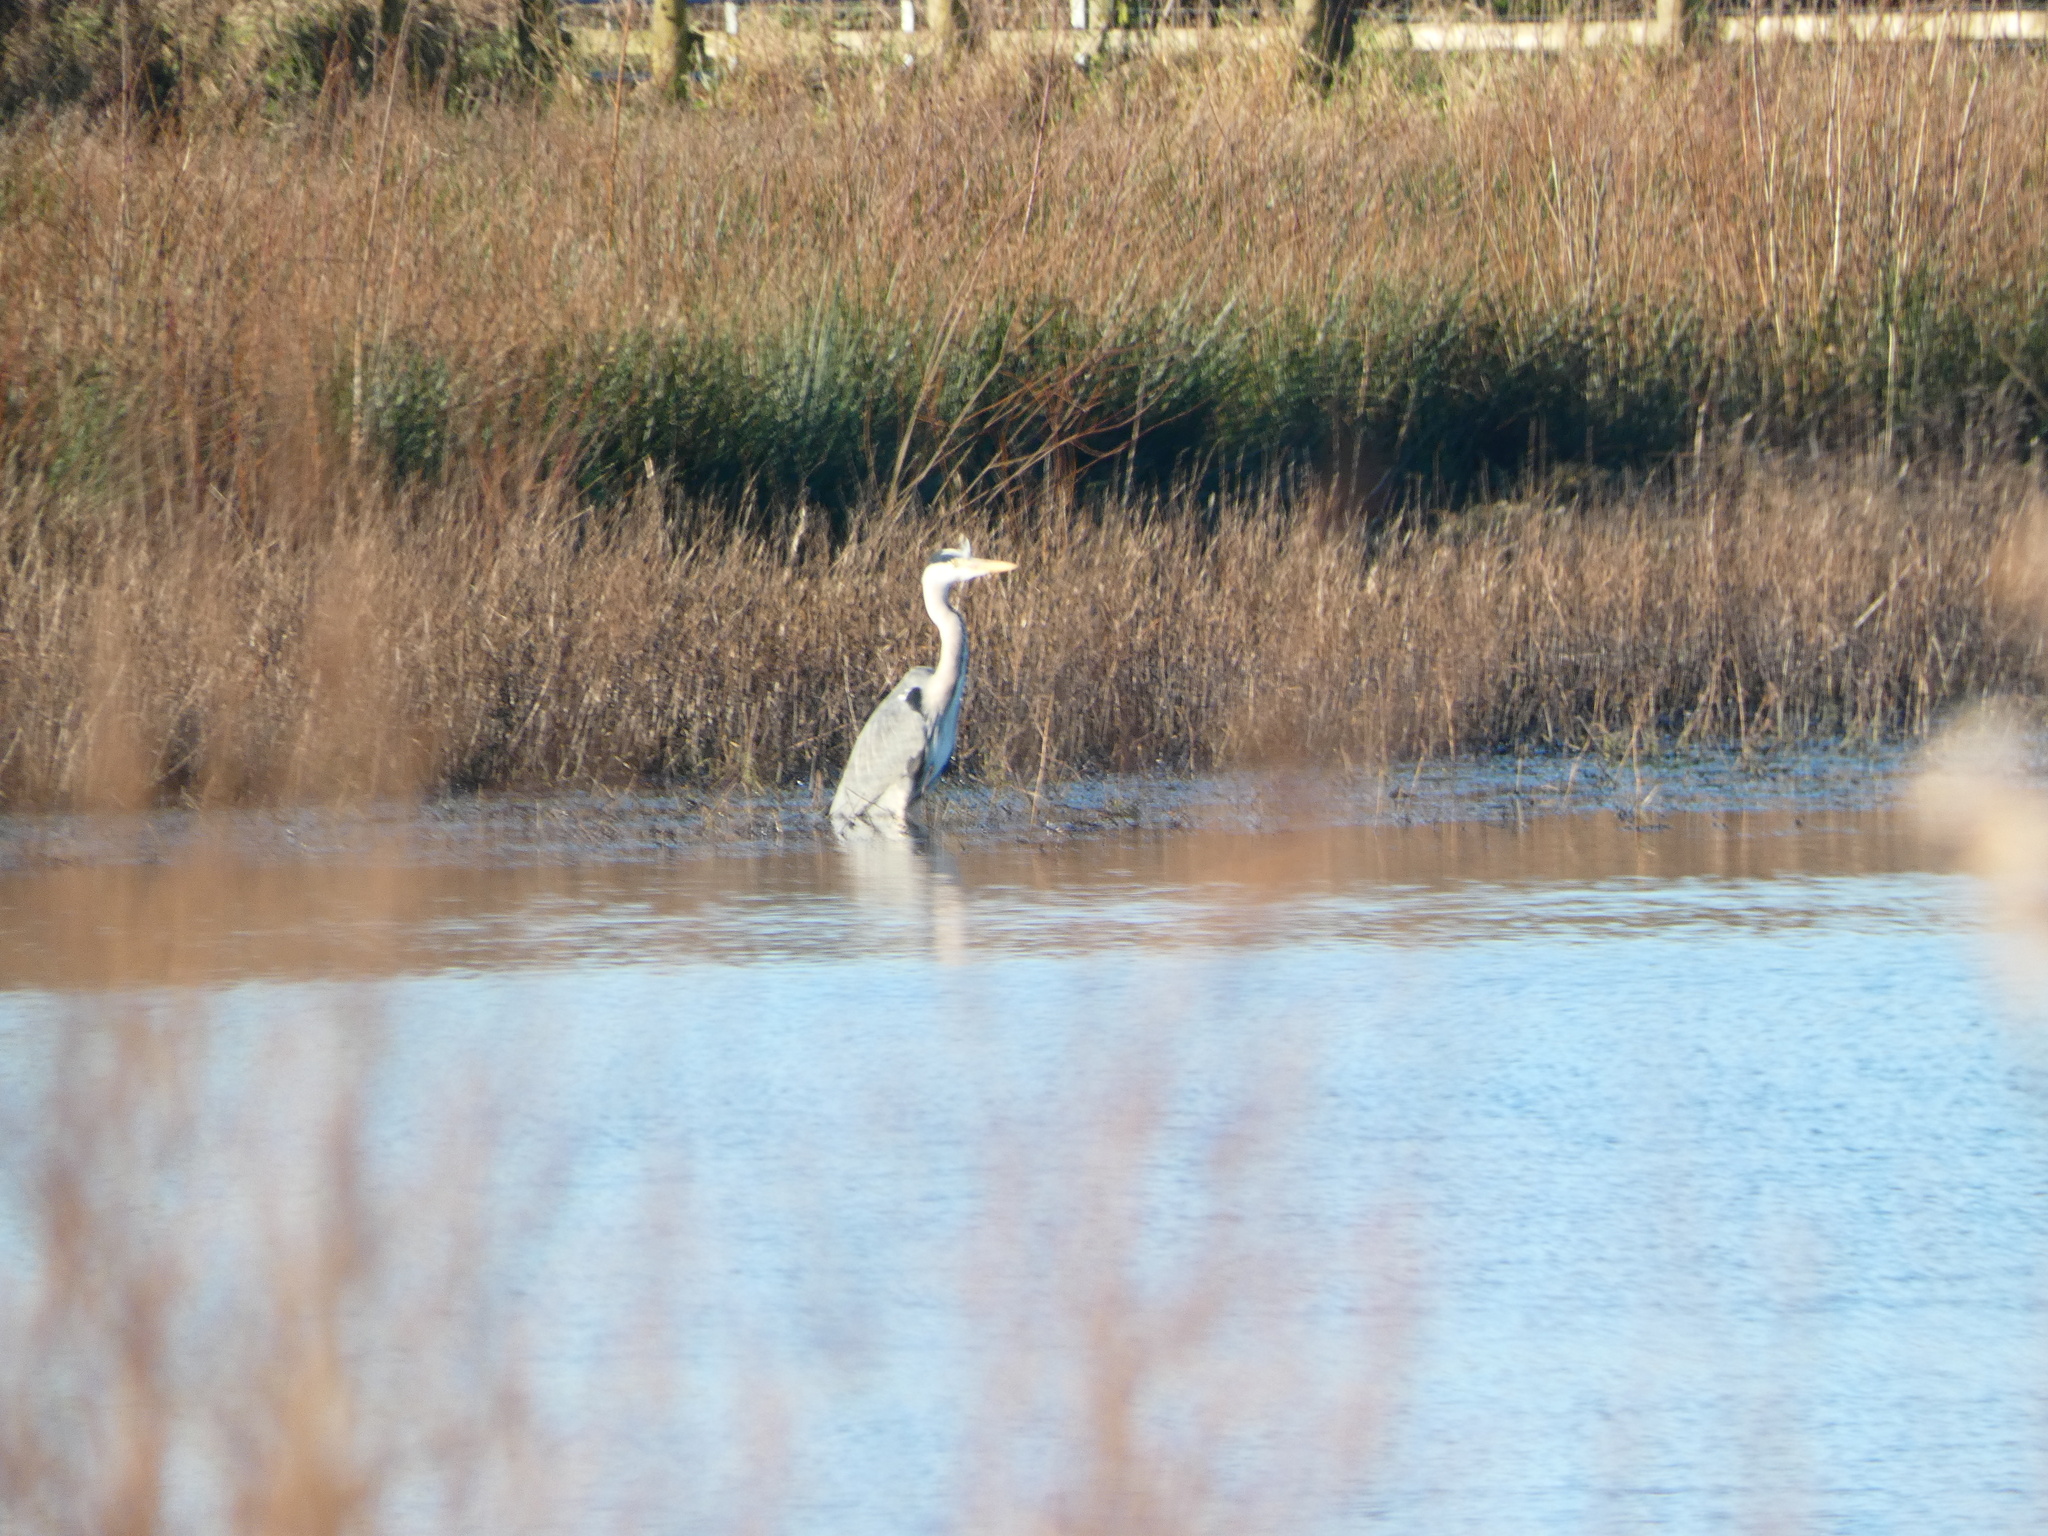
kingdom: Animalia
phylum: Chordata
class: Aves
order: Pelecaniformes
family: Ardeidae
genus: Ardea
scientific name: Ardea cinerea
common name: Grey heron
